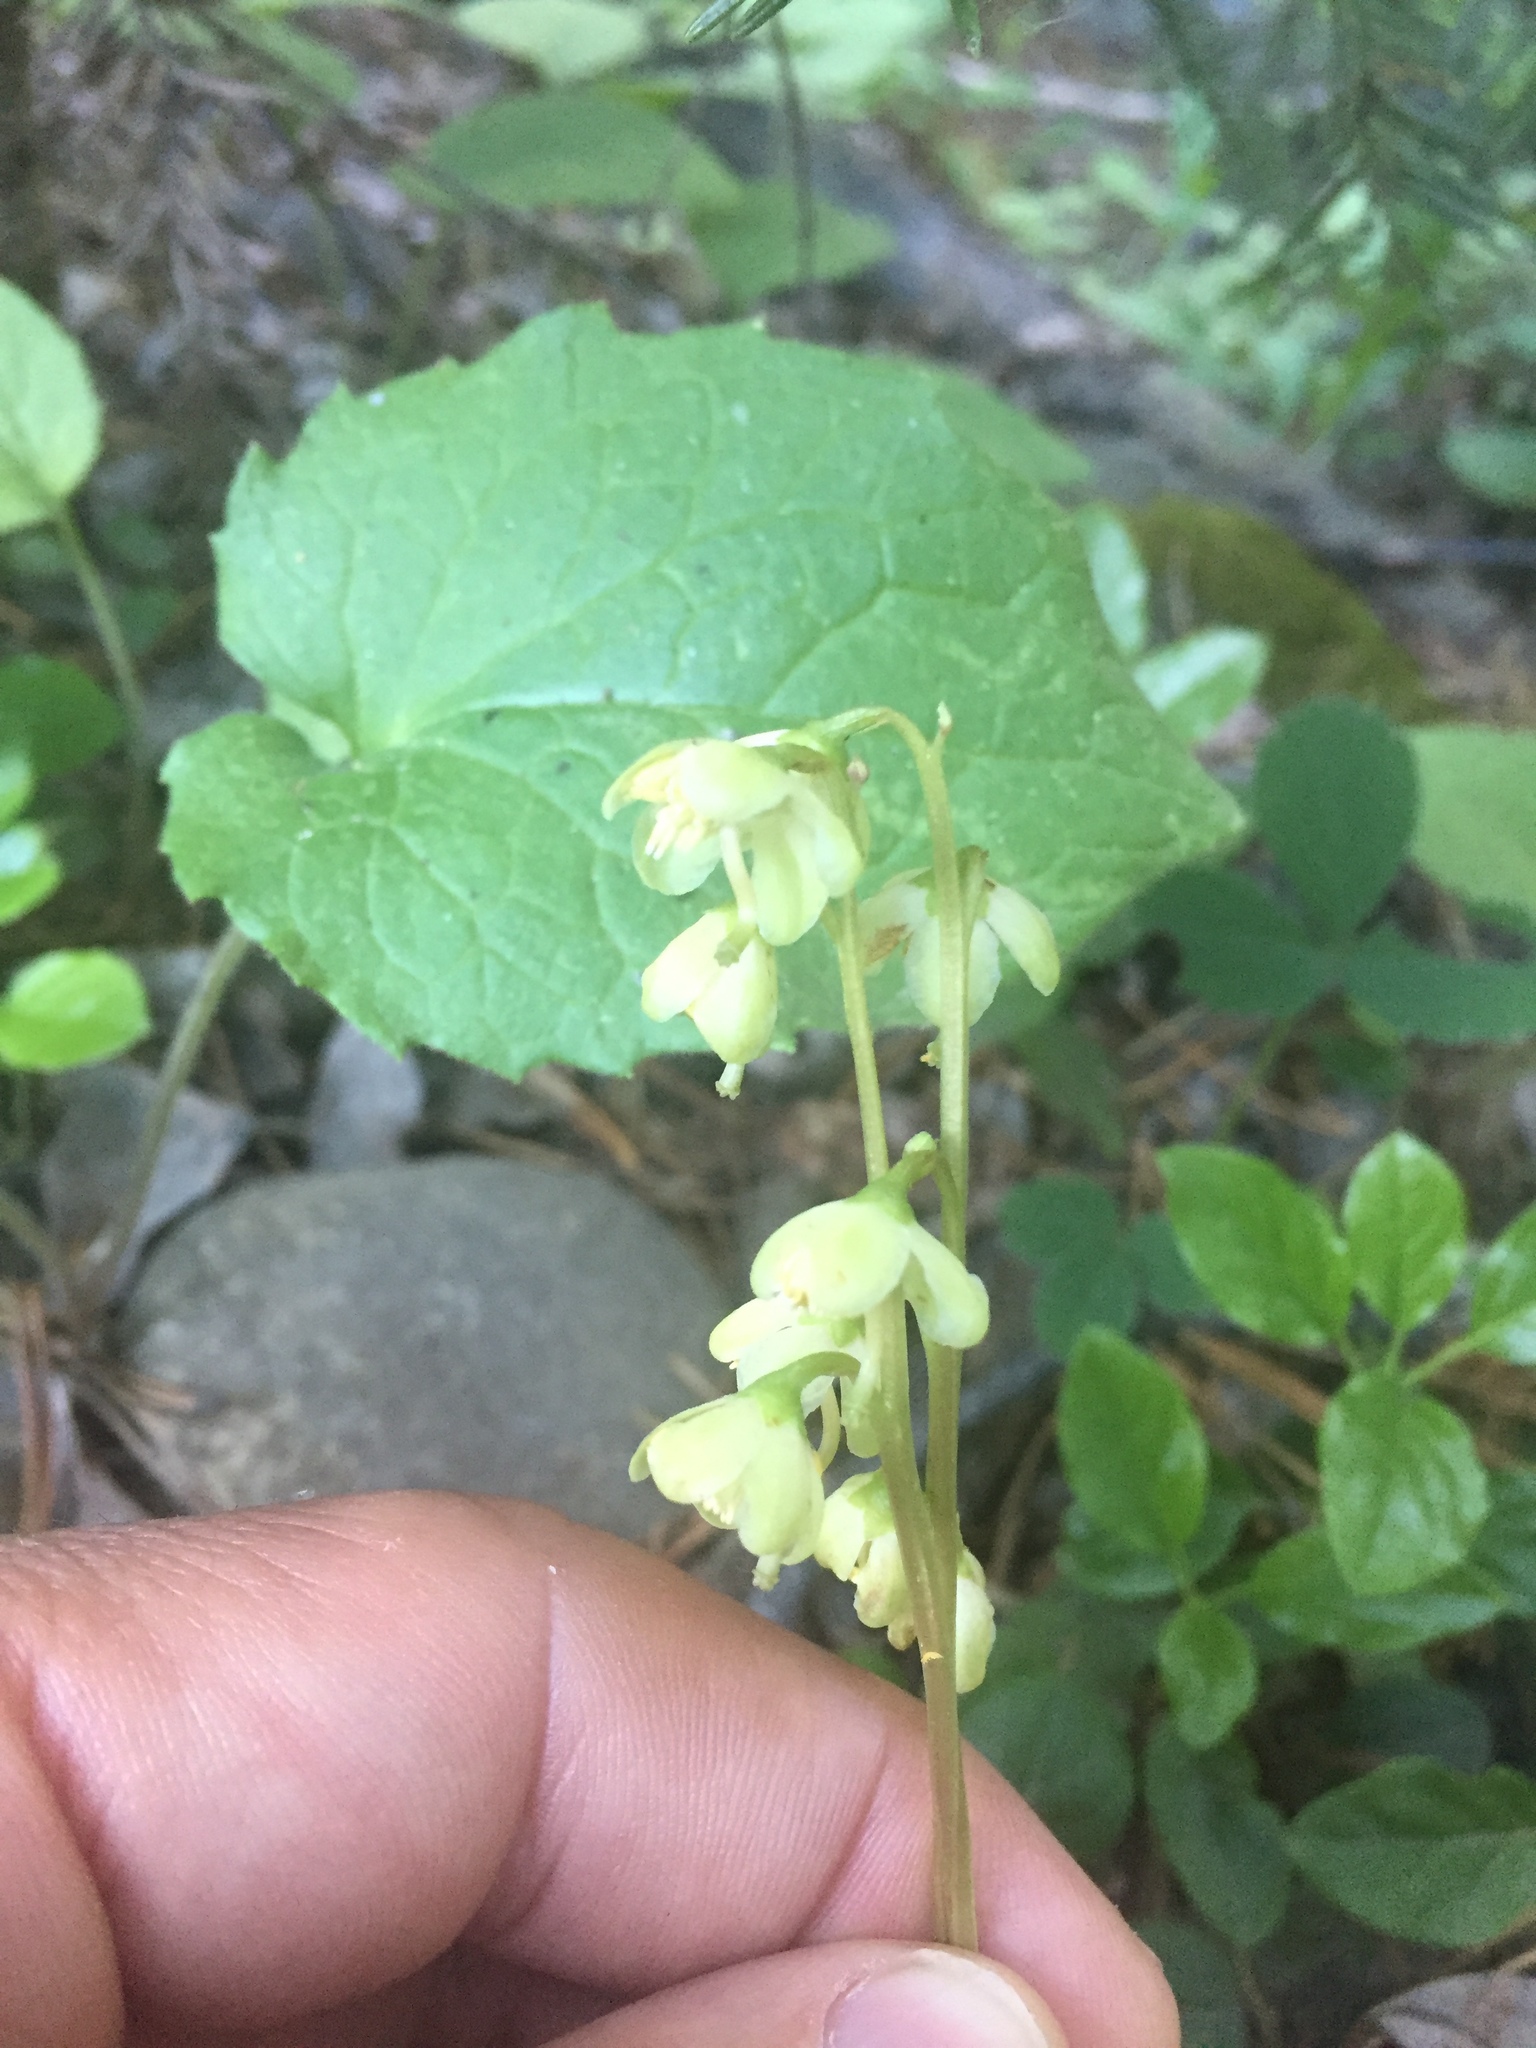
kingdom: Plantae
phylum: Tracheophyta
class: Magnoliopsida
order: Ericales
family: Ericaceae
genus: Pyrola
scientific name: Pyrola chlorantha
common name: Green wintergreen
